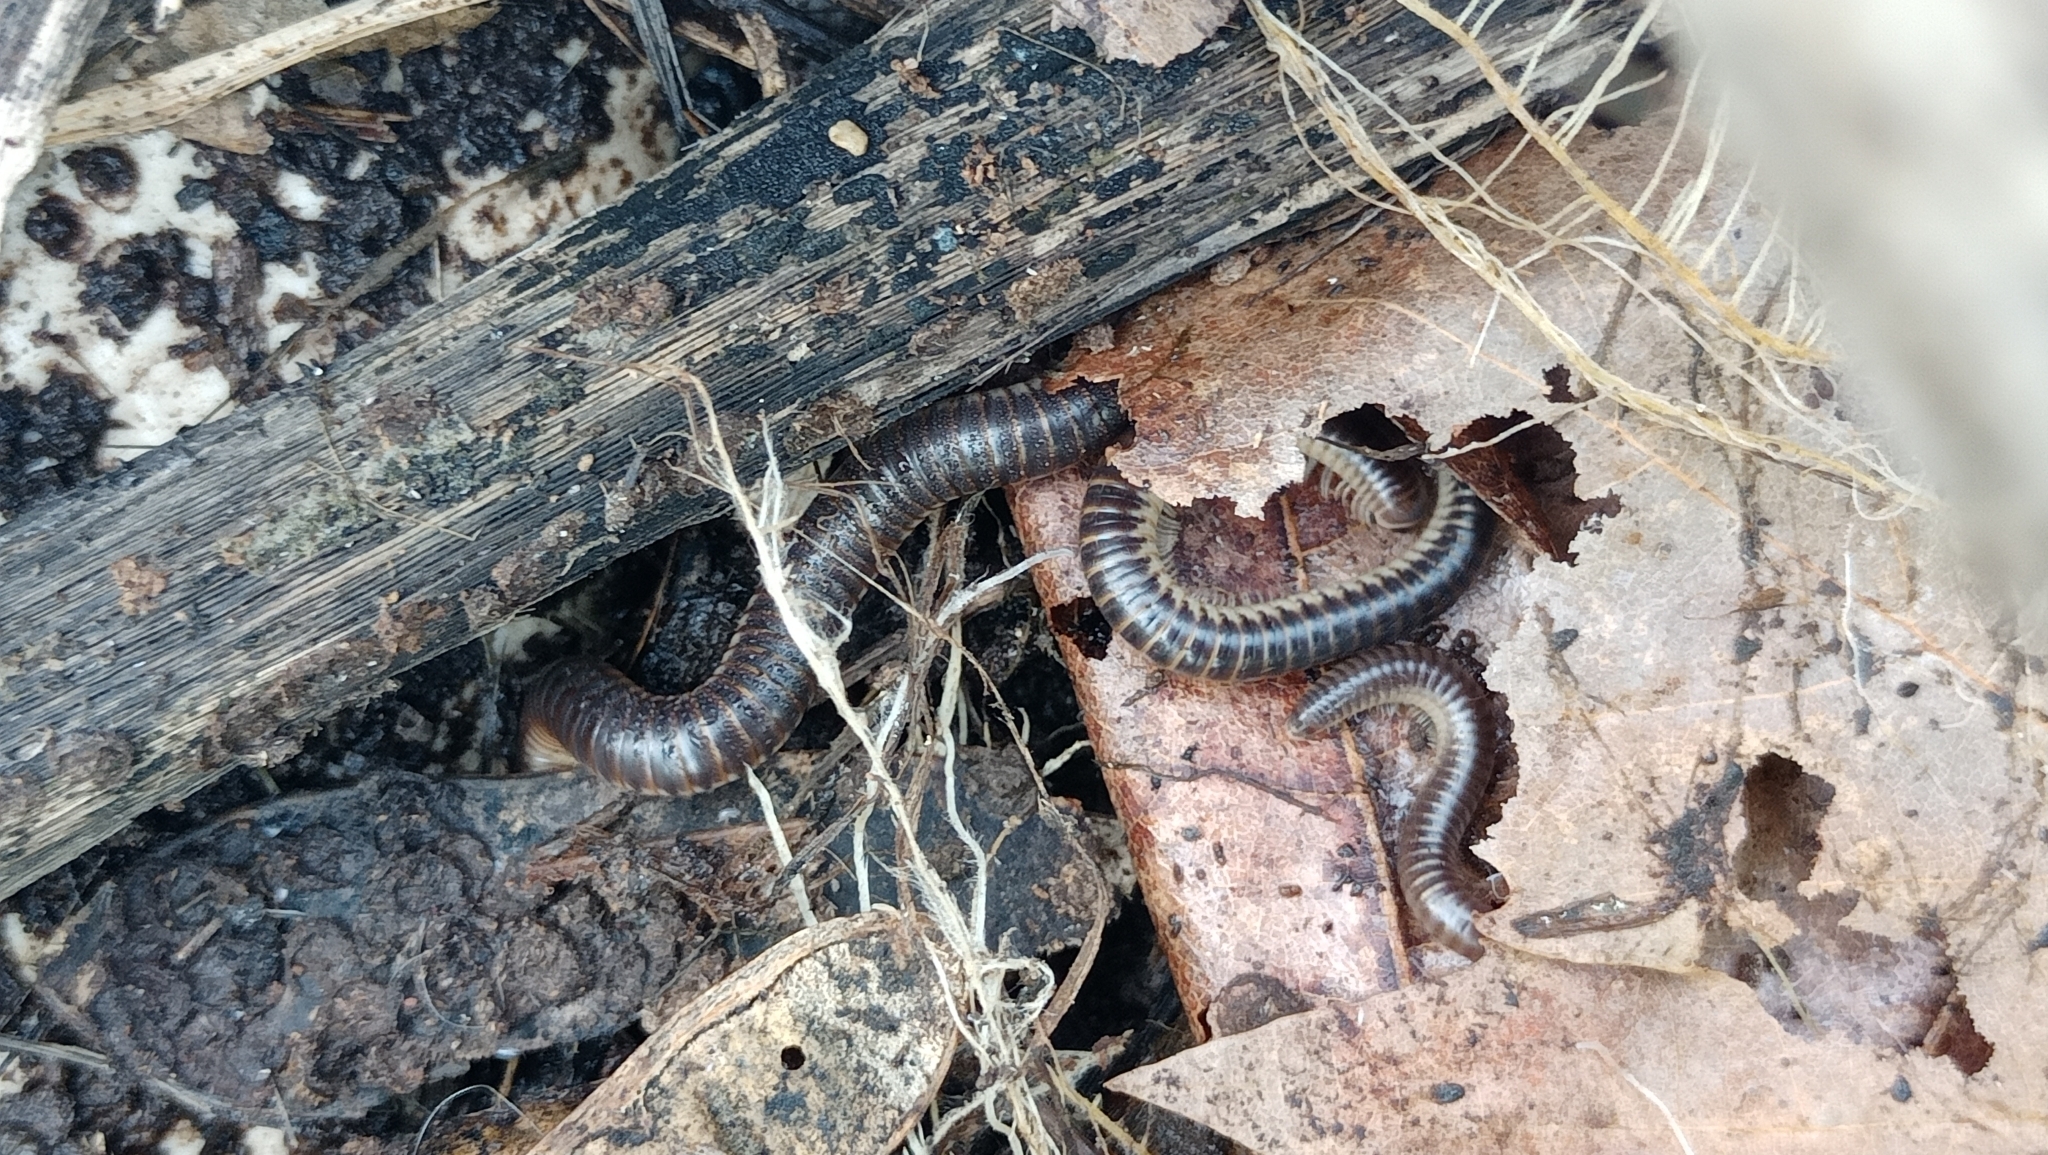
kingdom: Animalia
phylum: Arthropoda
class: Diplopoda
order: Julida
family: Julidae
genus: Pachyiulus
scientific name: Pachyiulus flavipes
